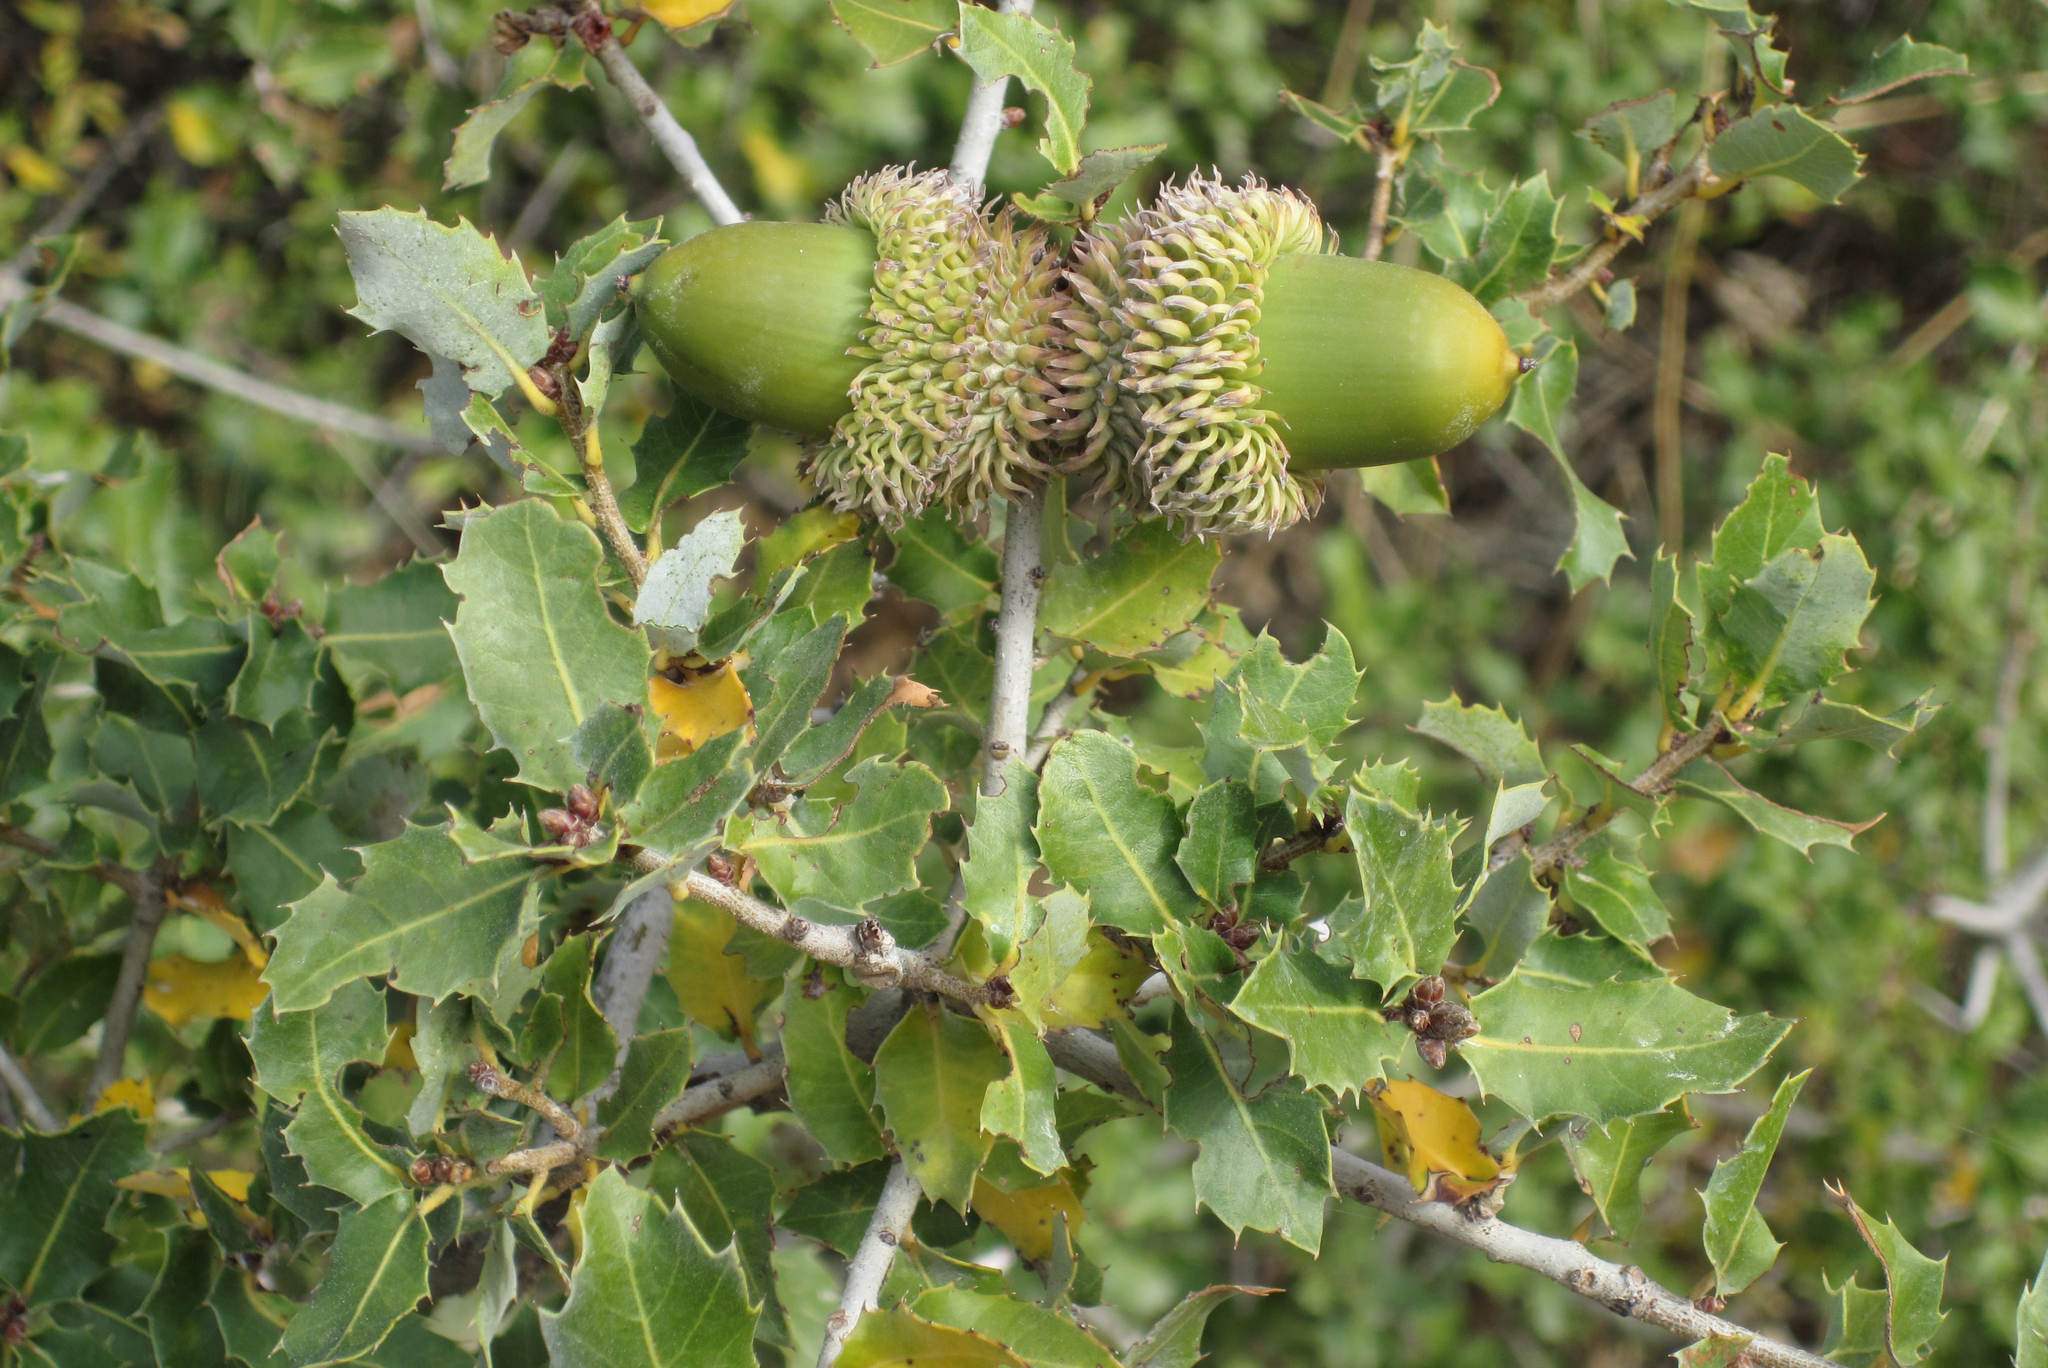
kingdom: Plantae
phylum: Tracheophyta
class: Magnoliopsida
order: Fagales
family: Fagaceae
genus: Quercus
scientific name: Quercus coccifera
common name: Kermes oak
